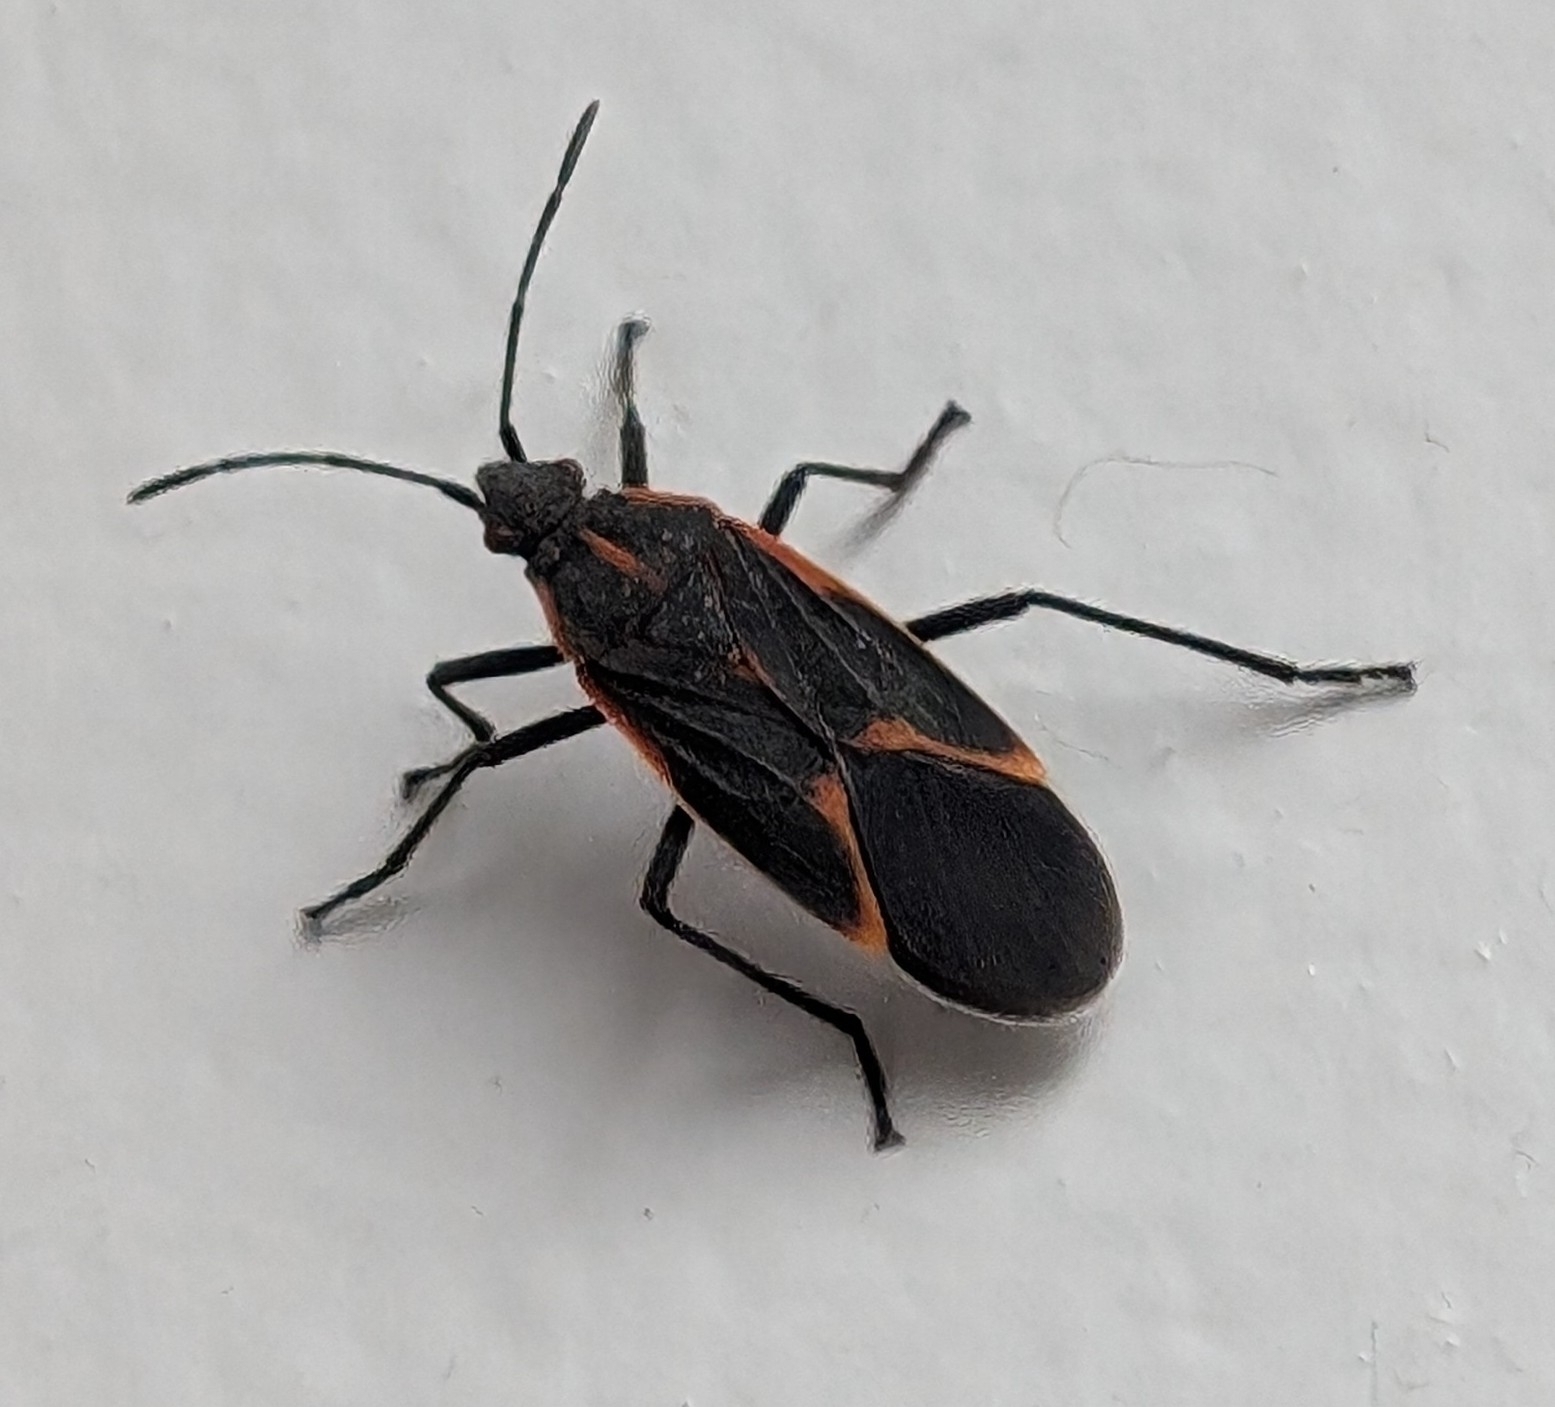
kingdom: Animalia
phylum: Arthropoda
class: Insecta
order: Hemiptera
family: Rhopalidae
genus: Boisea
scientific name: Boisea trivittata
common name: Boxelder bug
